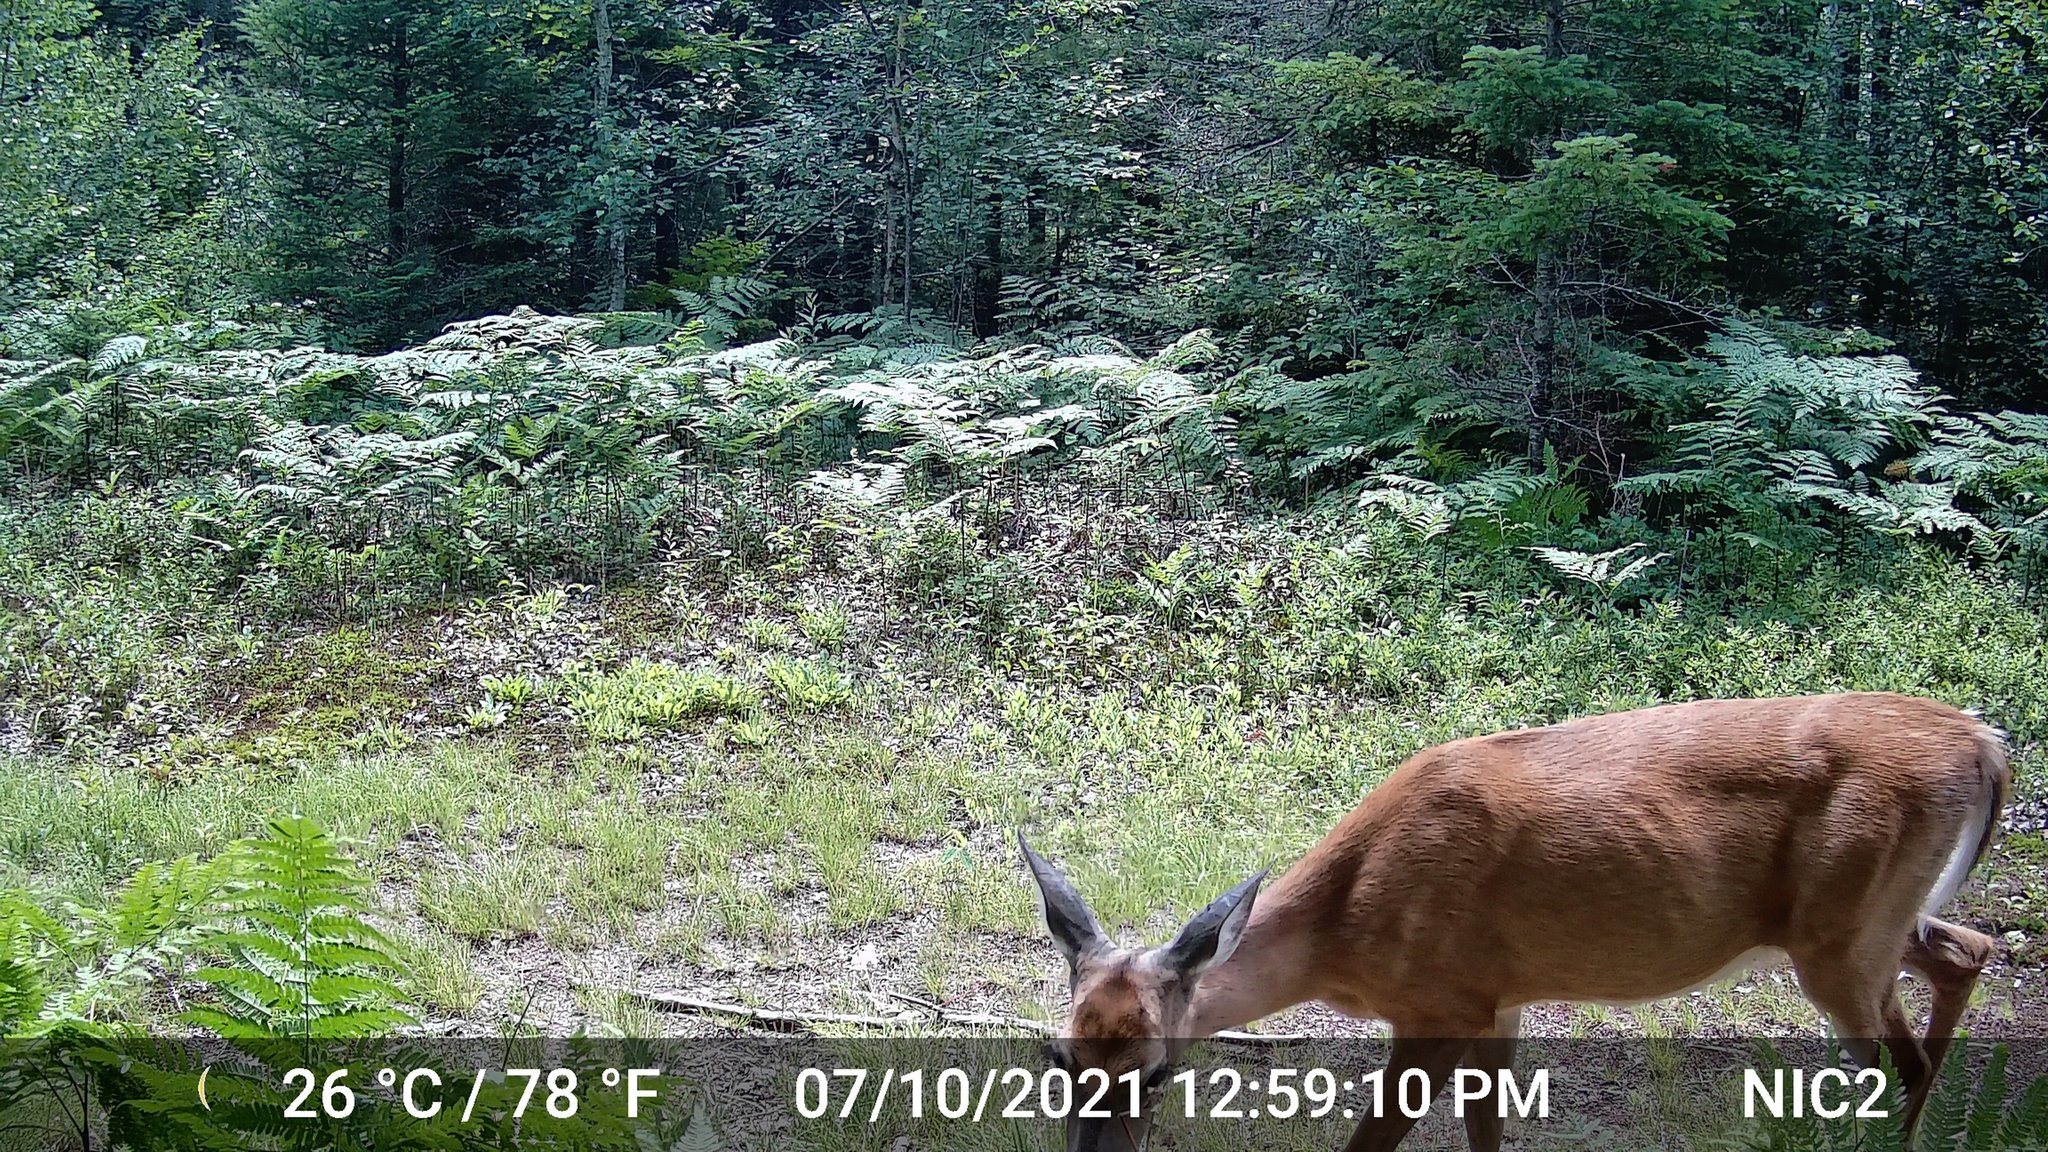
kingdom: Animalia
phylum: Chordata
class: Mammalia
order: Artiodactyla
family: Cervidae
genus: Odocoileus
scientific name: Odocoileus virginianus
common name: White-tailed deer
